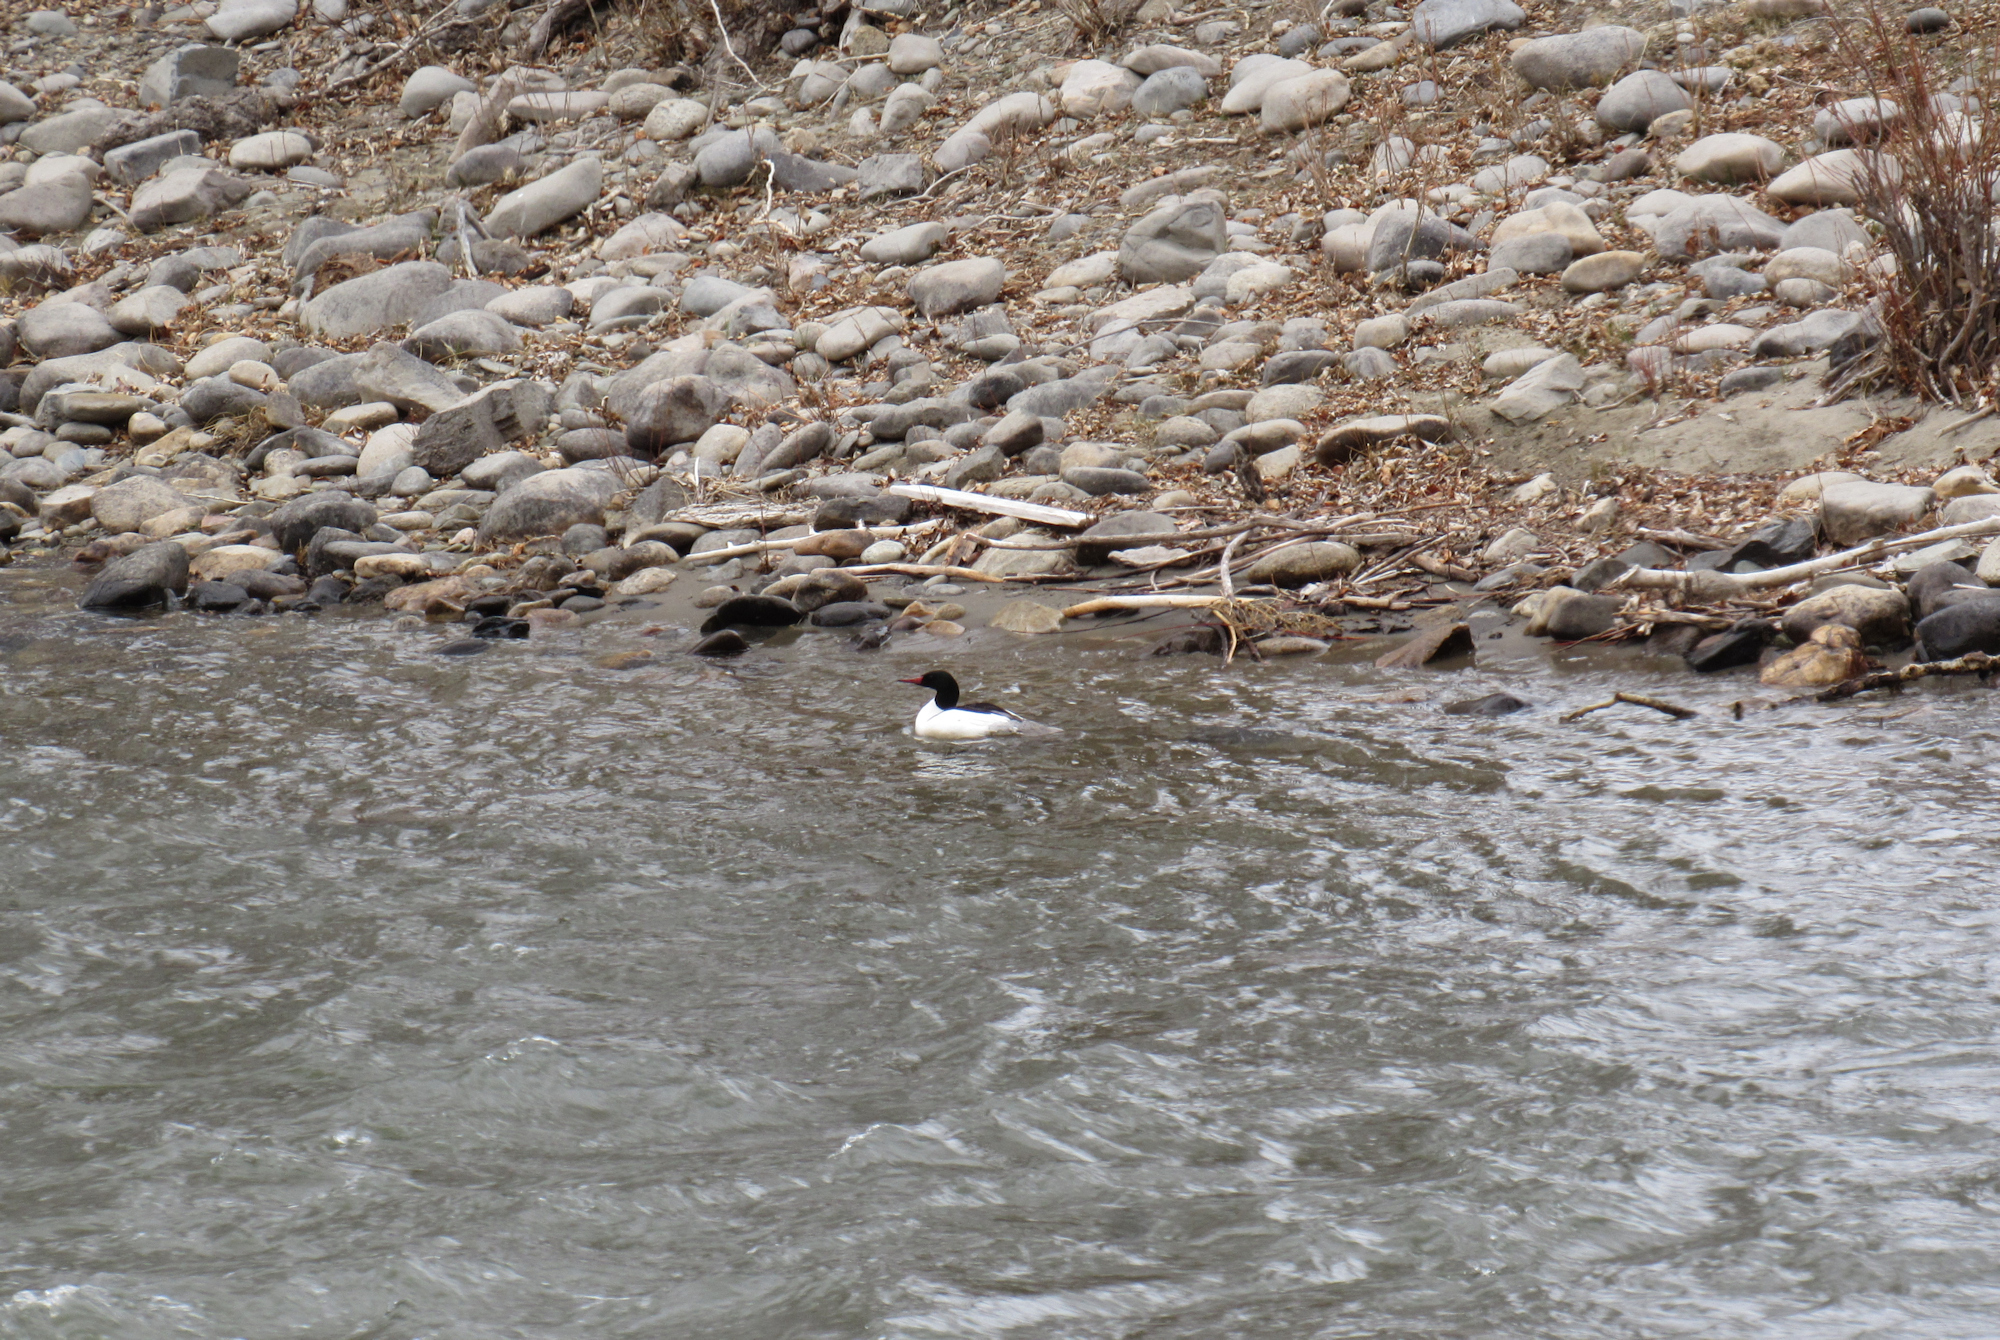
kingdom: Animalia
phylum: Chordata
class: Aves
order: Anseriformes
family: Anatidae
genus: Mergus
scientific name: Mergus merganser
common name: Common merganser
